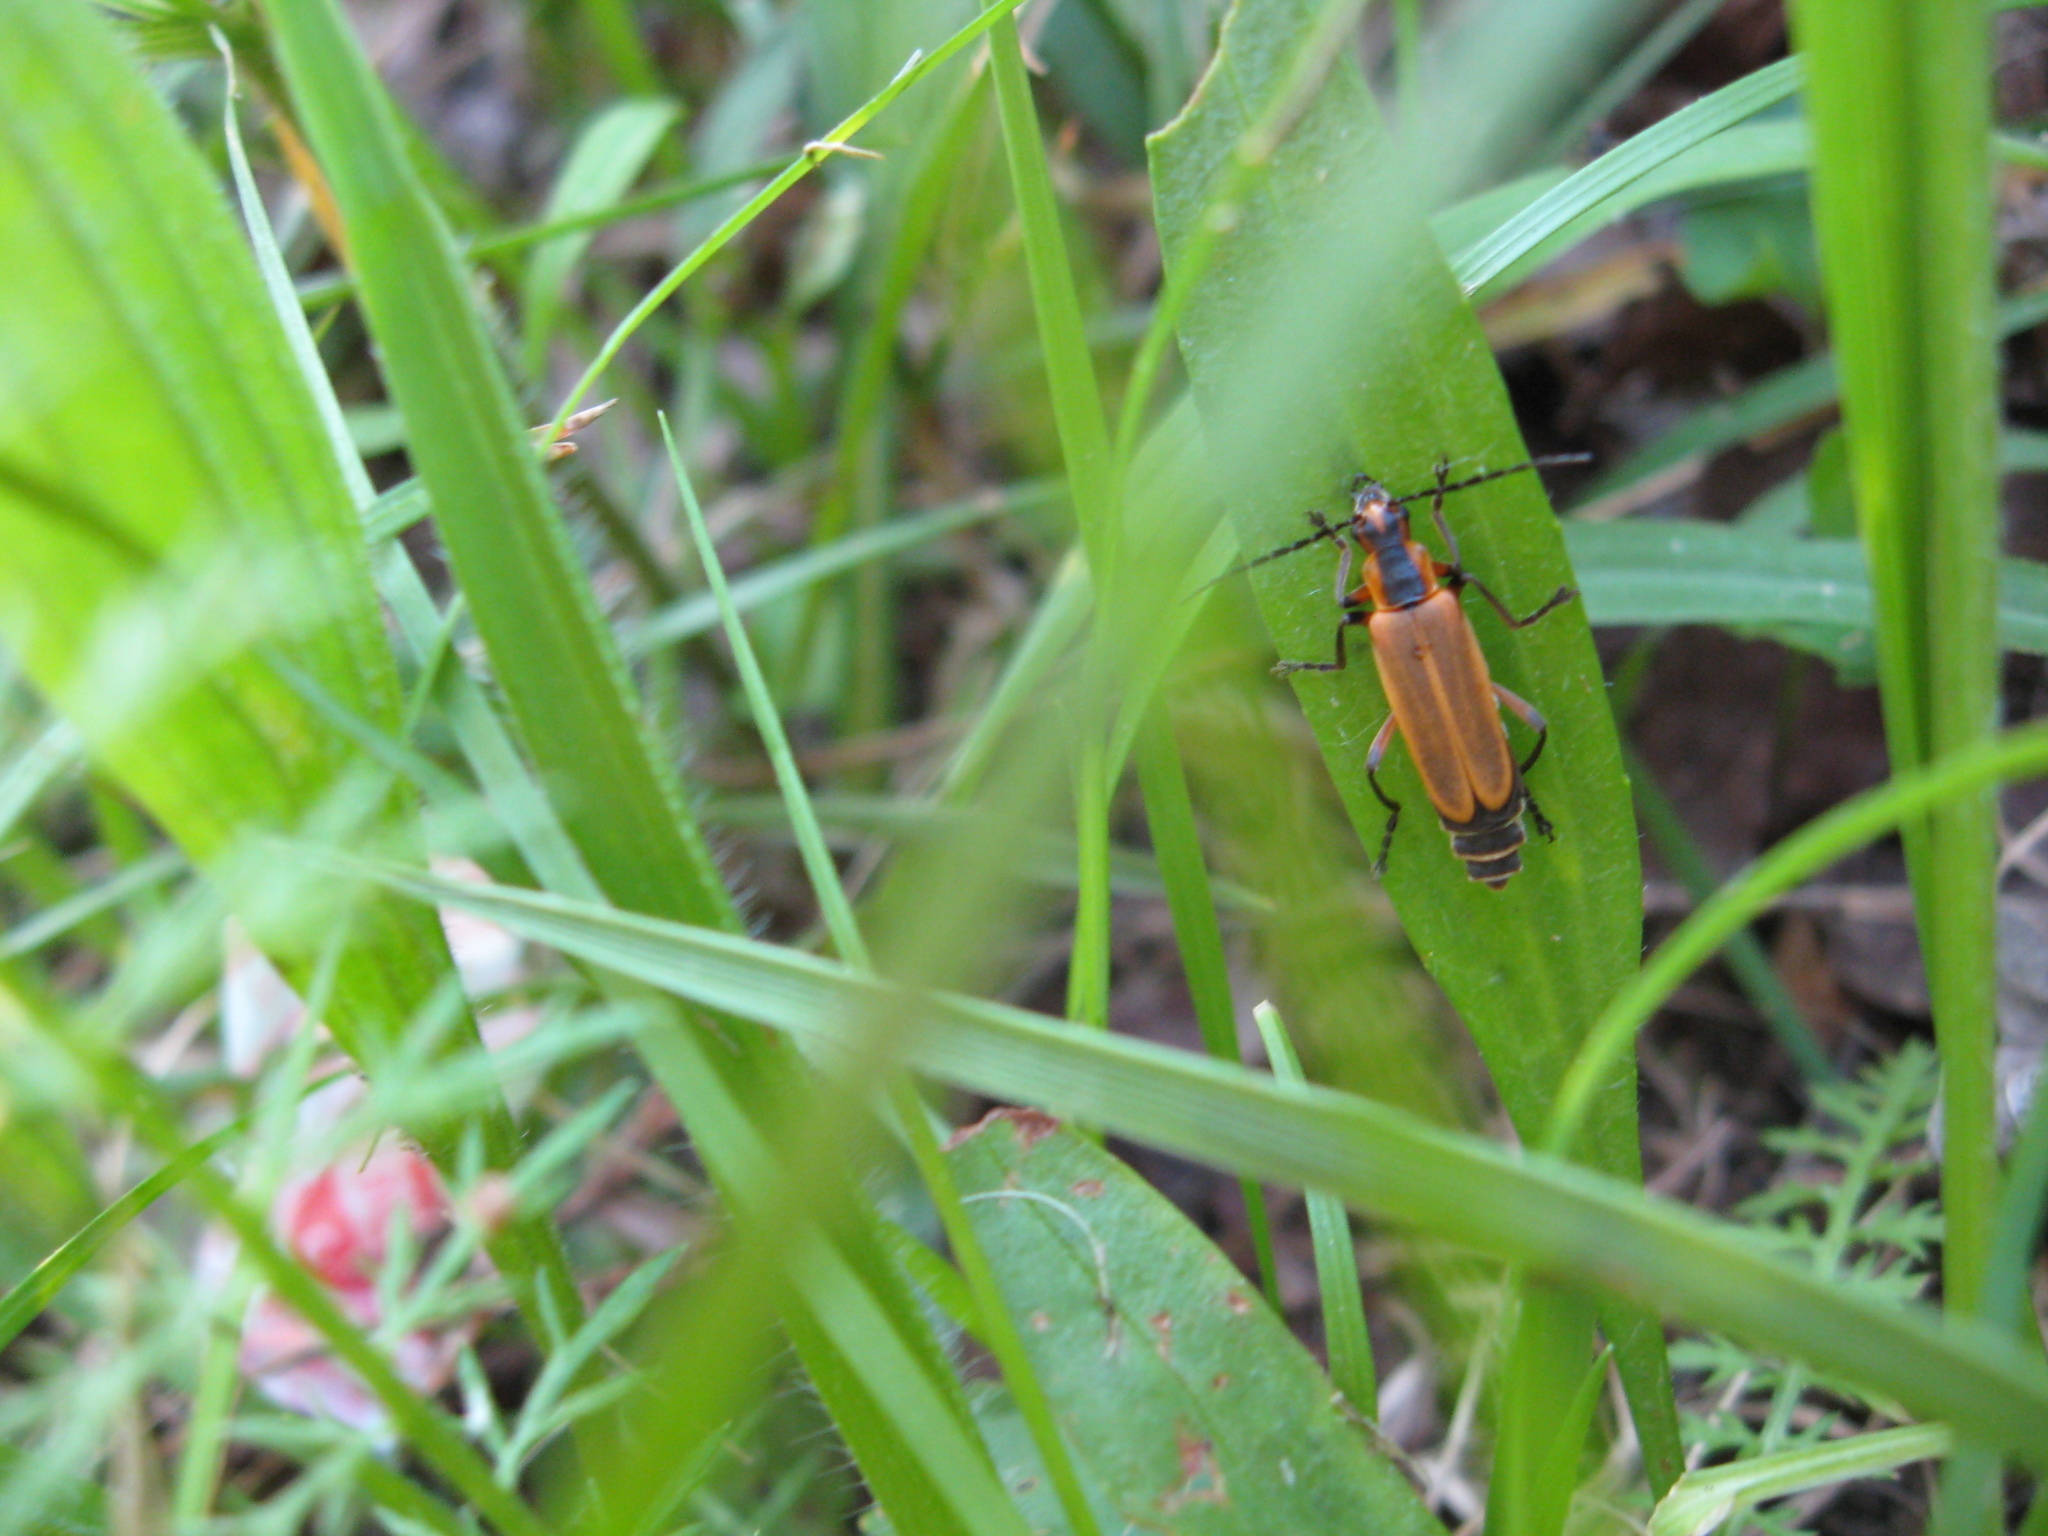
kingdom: Animalia
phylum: Arthropoda
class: Insecta
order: Coleoptera
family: Cantharidae
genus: Chauliognathus
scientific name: Chauliognathus marginatus
